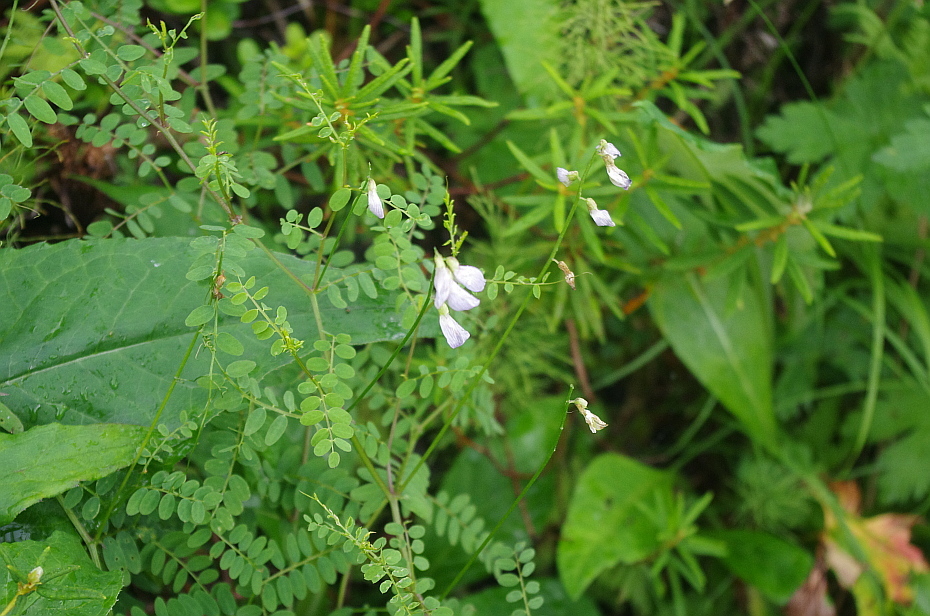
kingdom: Plantae
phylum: Tracheophyta
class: Magnoliopsida
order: Fabales
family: Fabaceae
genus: Vicia
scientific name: Vicia sylvatica
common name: Wood vetch
